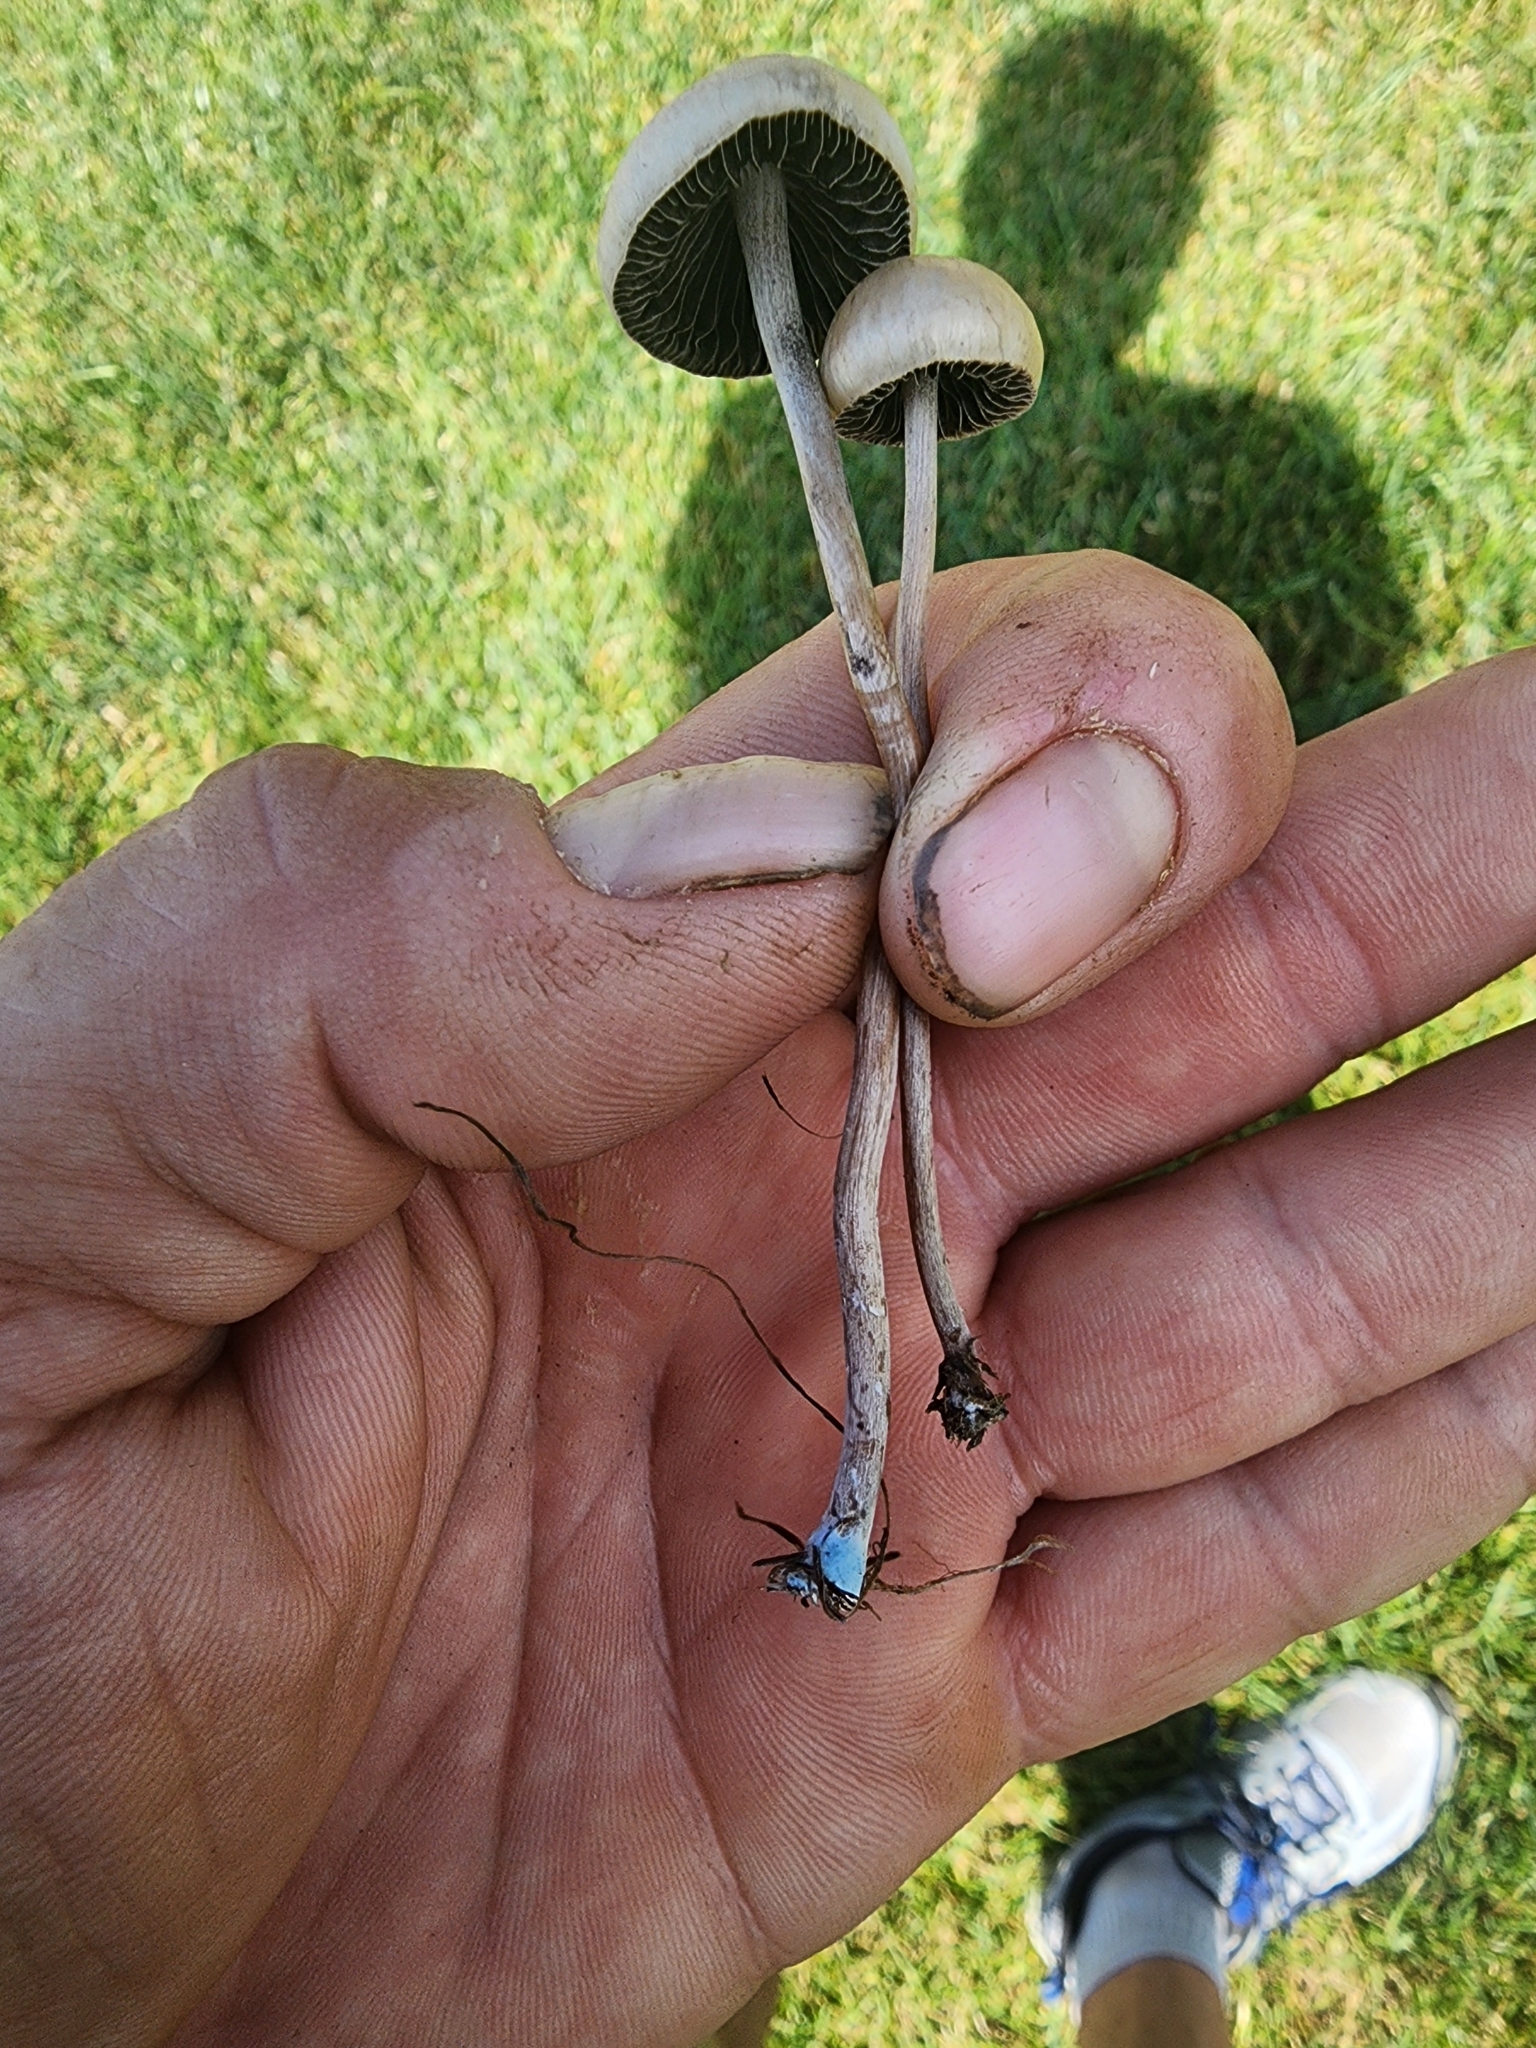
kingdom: Fungi
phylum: Basidiomycota
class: Agaricomycetes
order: Agaricales
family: Bolbitiaceae
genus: Panaeolus
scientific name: Panaeolus cinctulus
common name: Banded mottlegill
